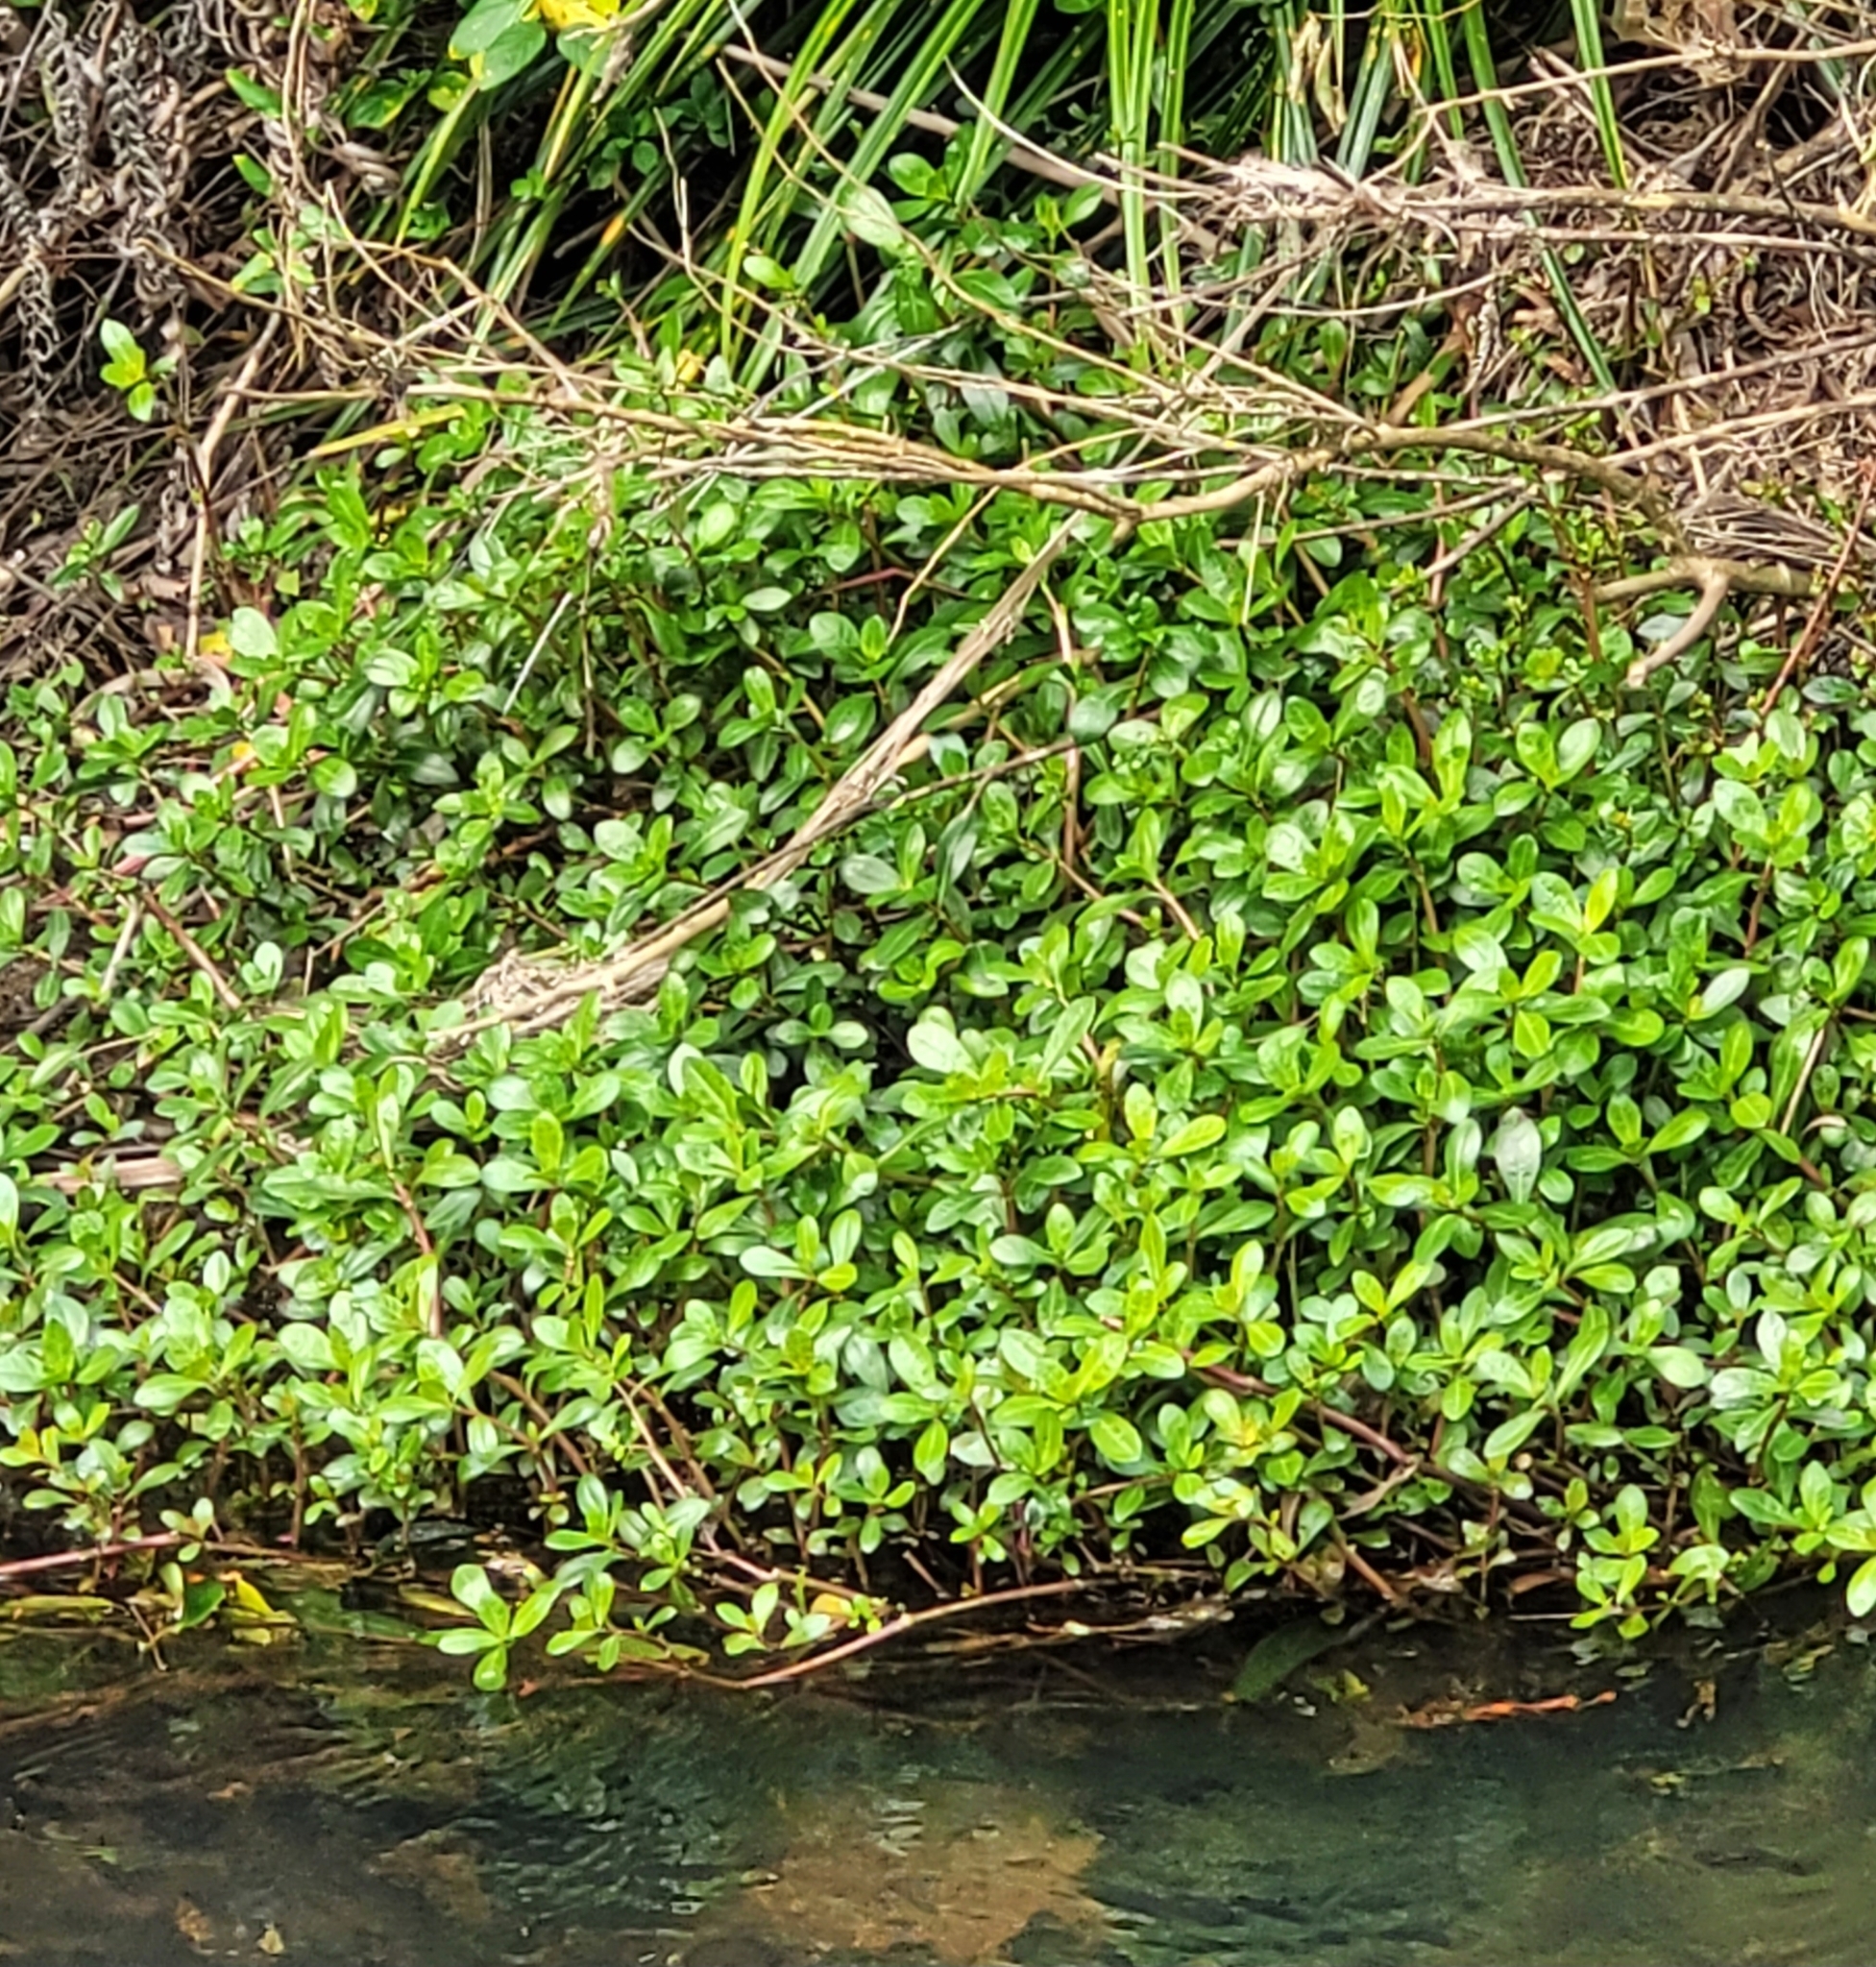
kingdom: Plantae
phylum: Tracheophyta
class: Magnoliopsida
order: Caryophyllales
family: Amaranthaceae
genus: Alternanthera
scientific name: Alternanthera philoxeroides
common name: Alligatorweed
